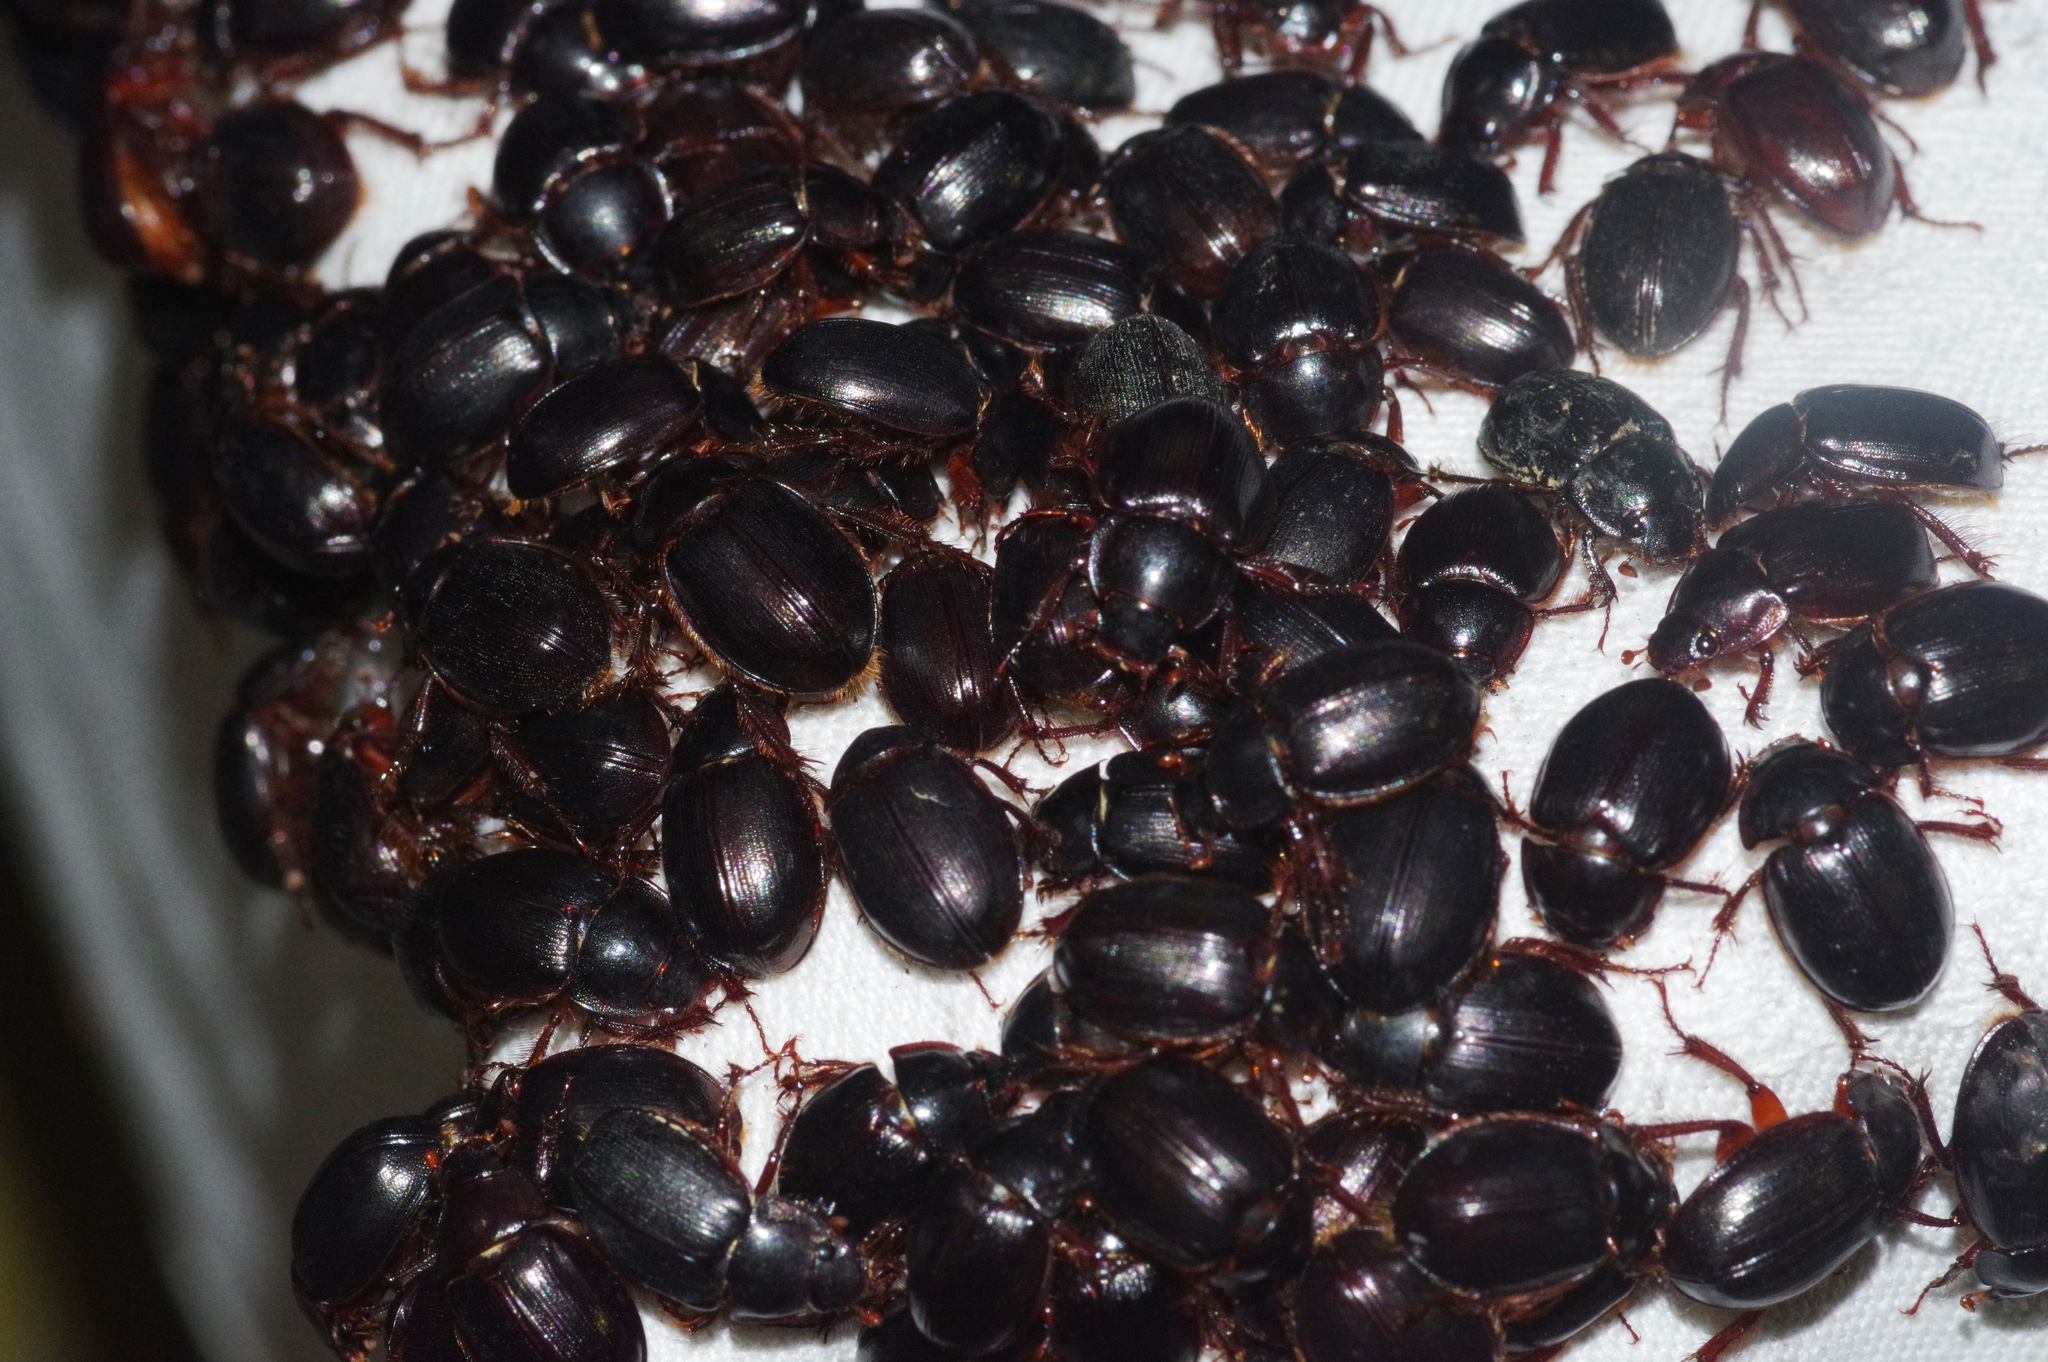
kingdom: Animalia
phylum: Arthropoda
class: Insecta
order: Coleoptera
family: Hybosoridae
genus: Phaeochrous
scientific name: Phaeochrous emarginatus
